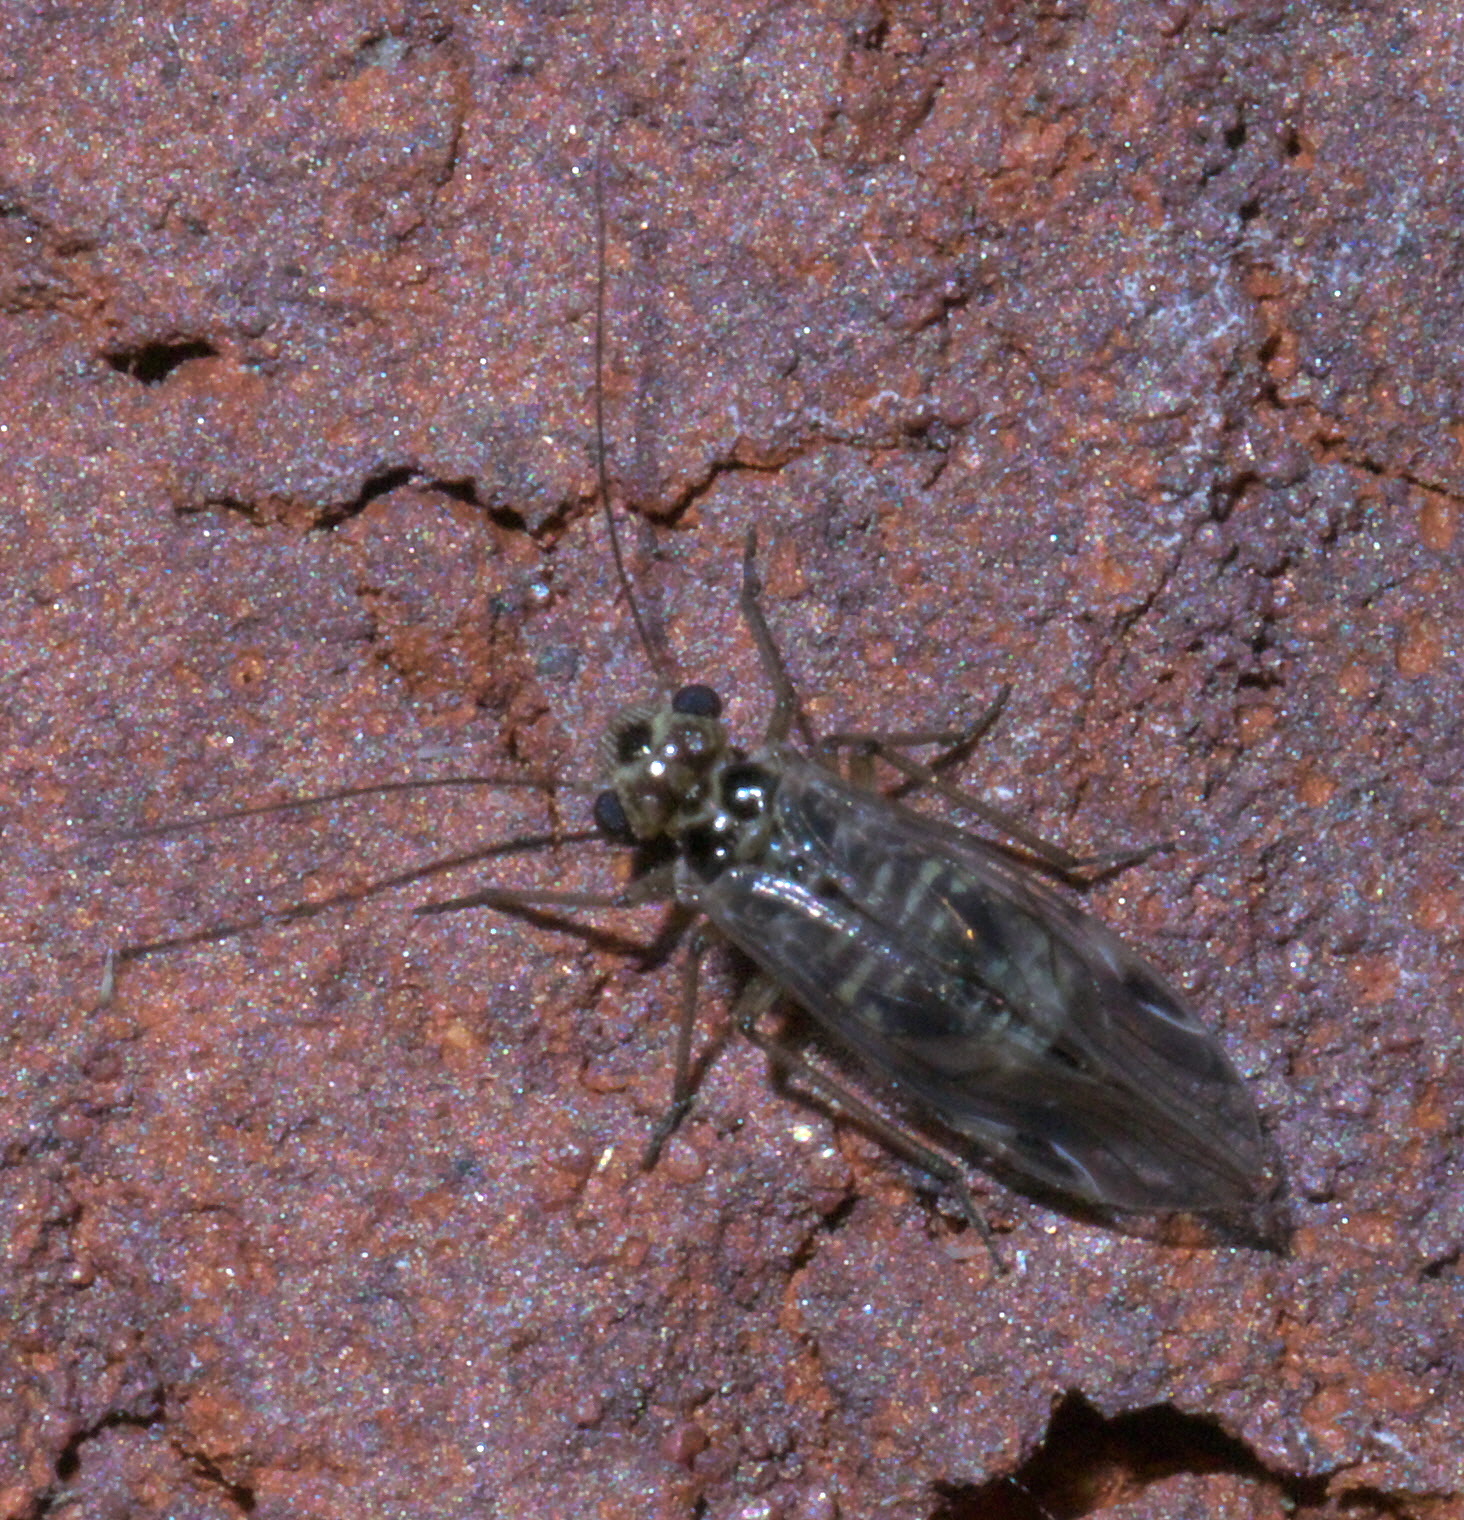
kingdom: Animalia
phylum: Arthropoda
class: Insecta
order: Psocodea
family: Psocidae
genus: Blaste
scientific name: Blaste quieta
